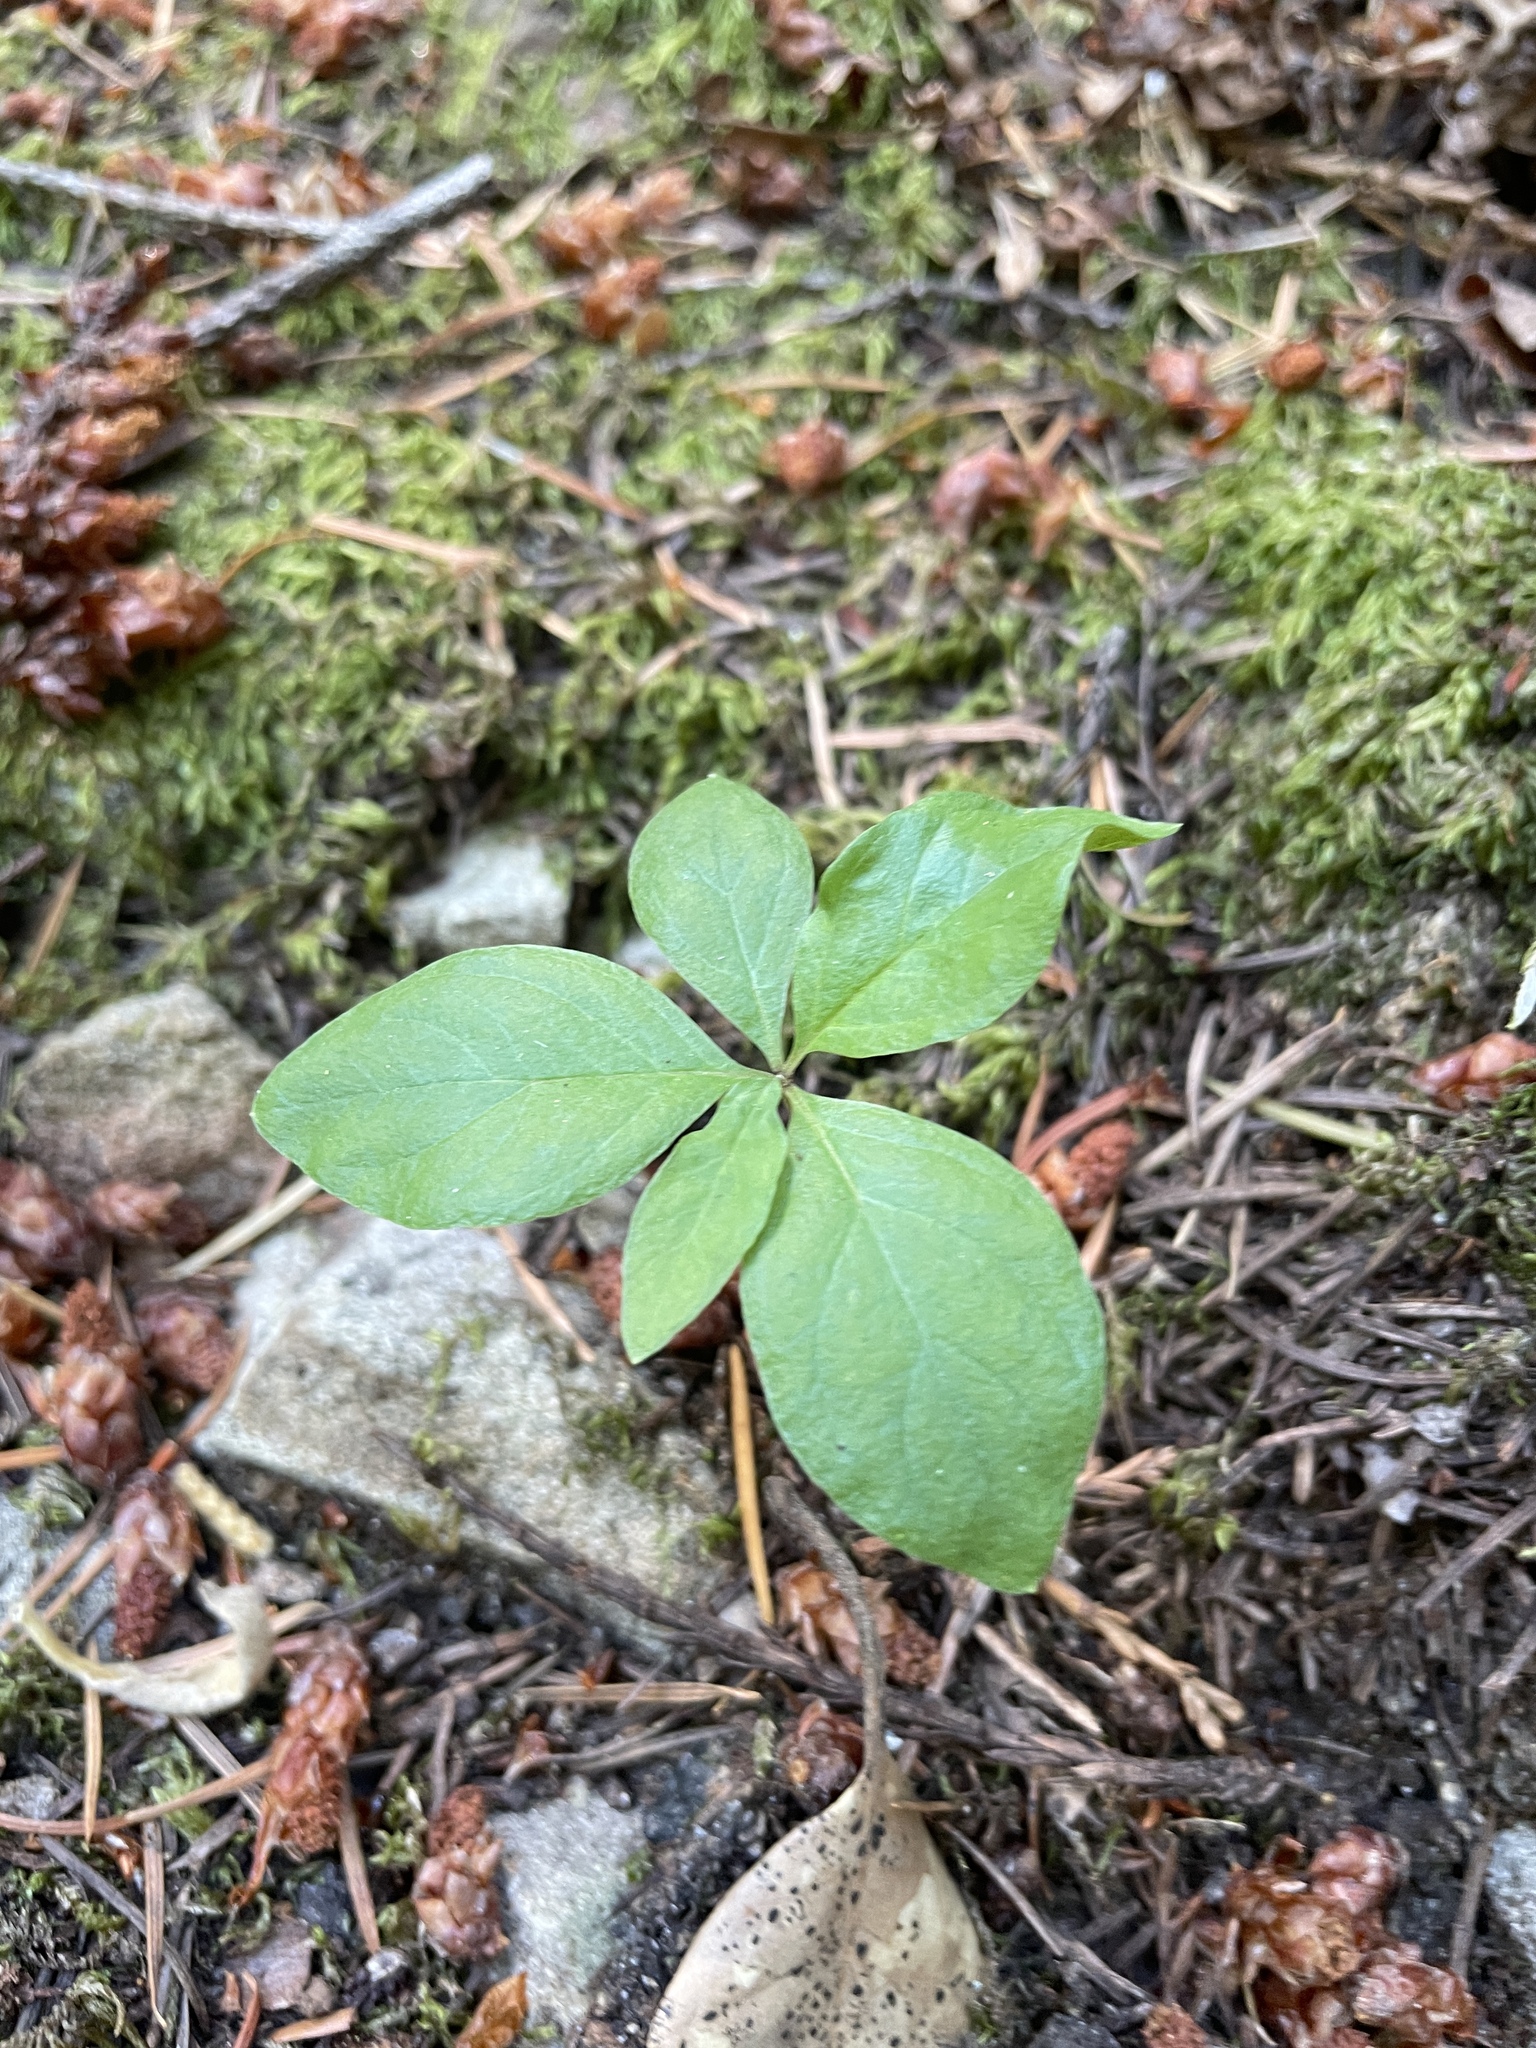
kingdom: Plantae
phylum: Tracheophyta
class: Magnoliopsida
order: Ericales
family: Primulaceae
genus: Lysimachia
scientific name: Lysimachia latifolia
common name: Pacific starflower
